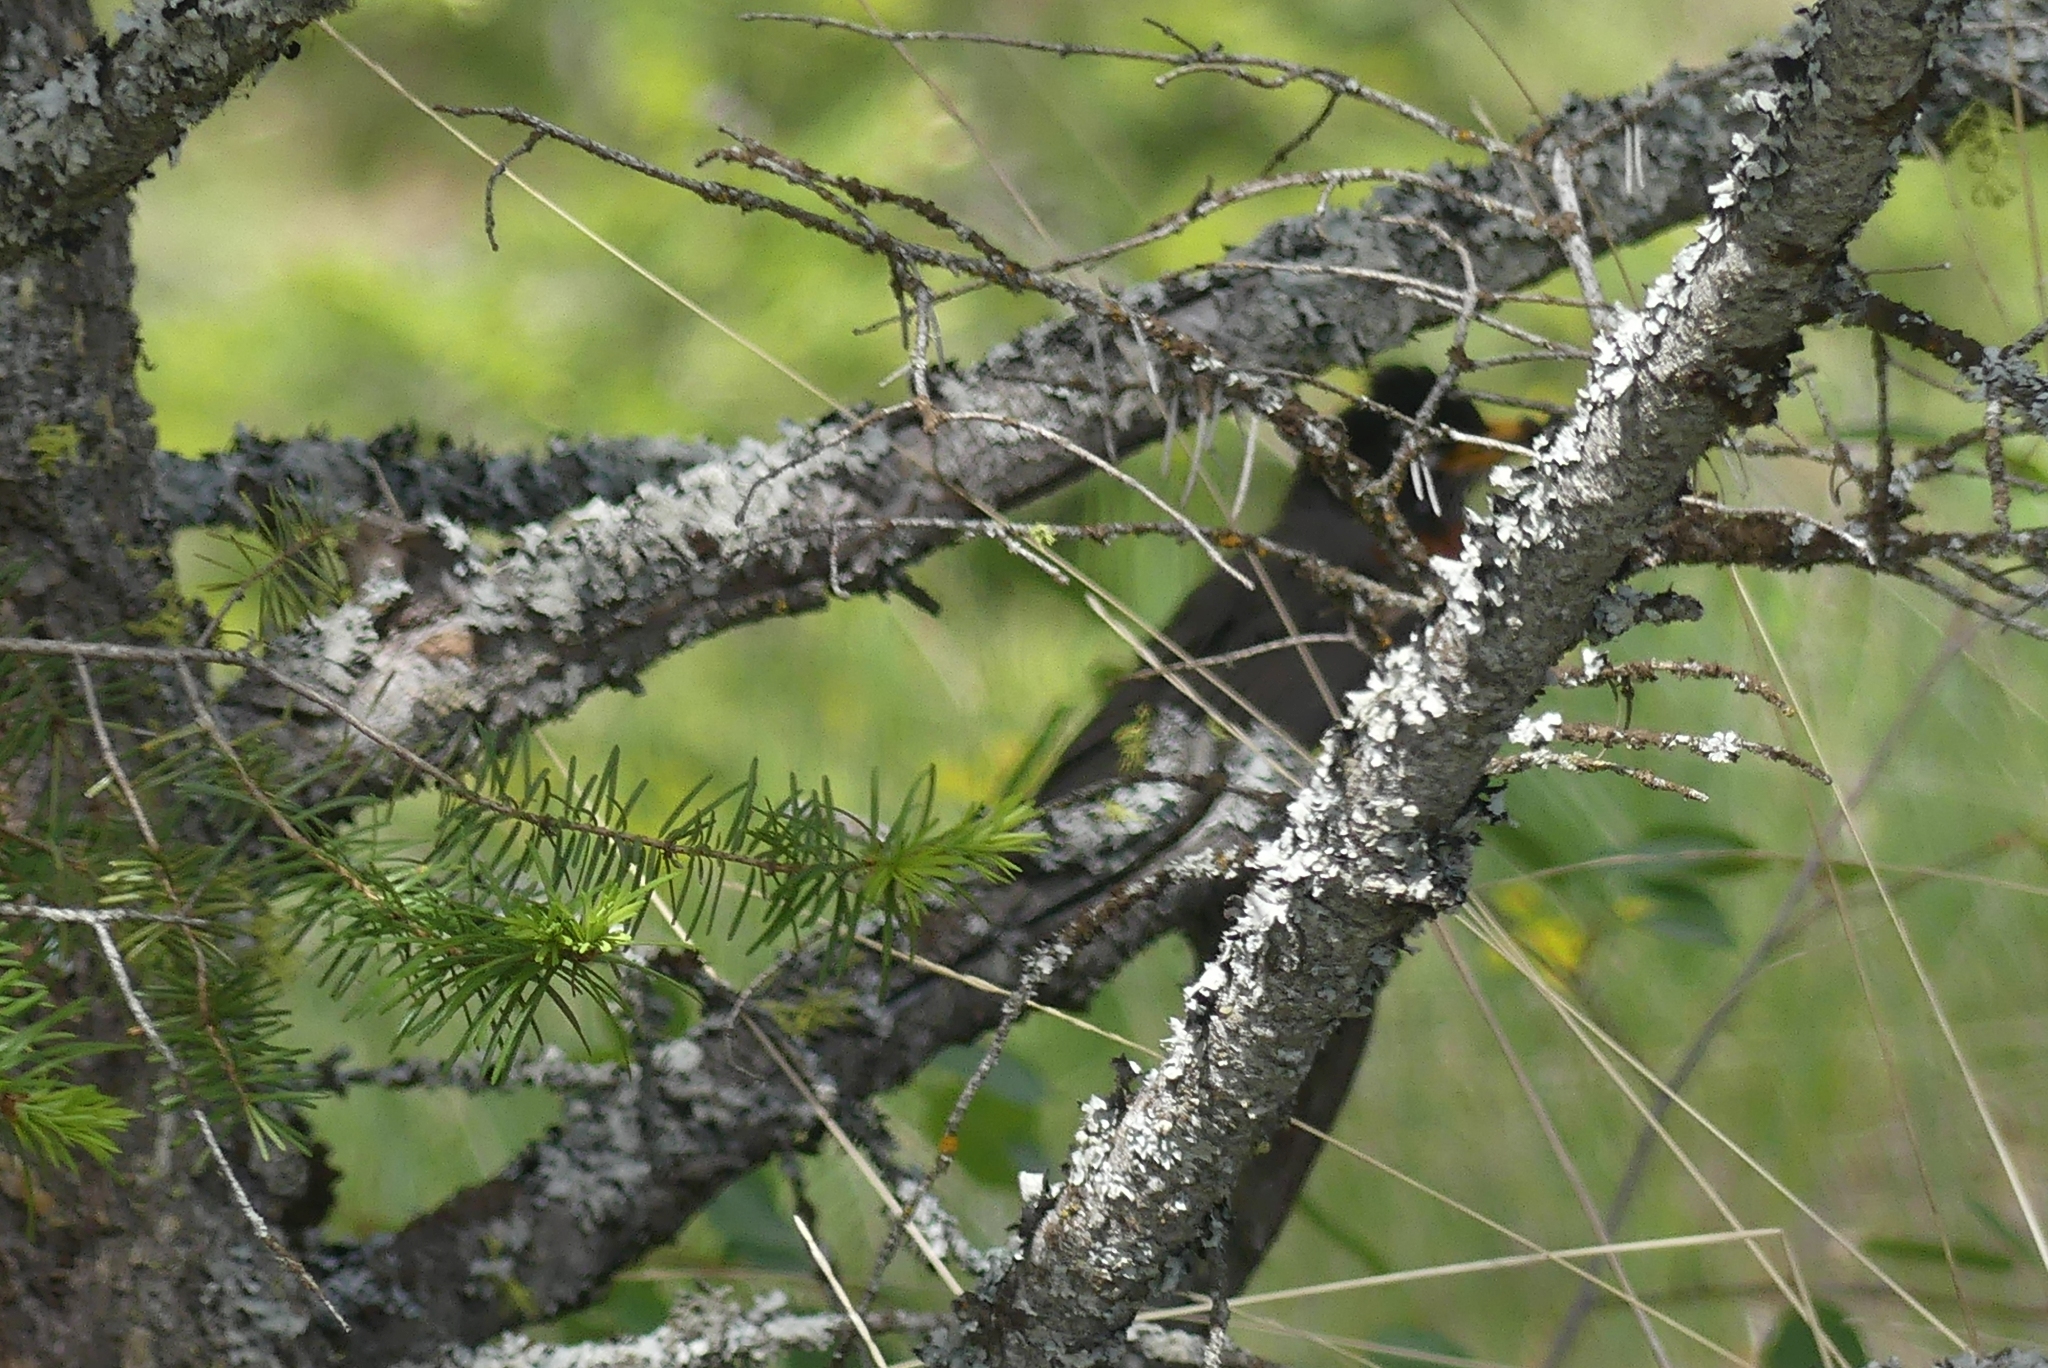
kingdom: Animalia
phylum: Chordata
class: Aves
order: Passeriformes
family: Turdidae
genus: Turdus
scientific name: Turdus migratorius
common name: American robin
